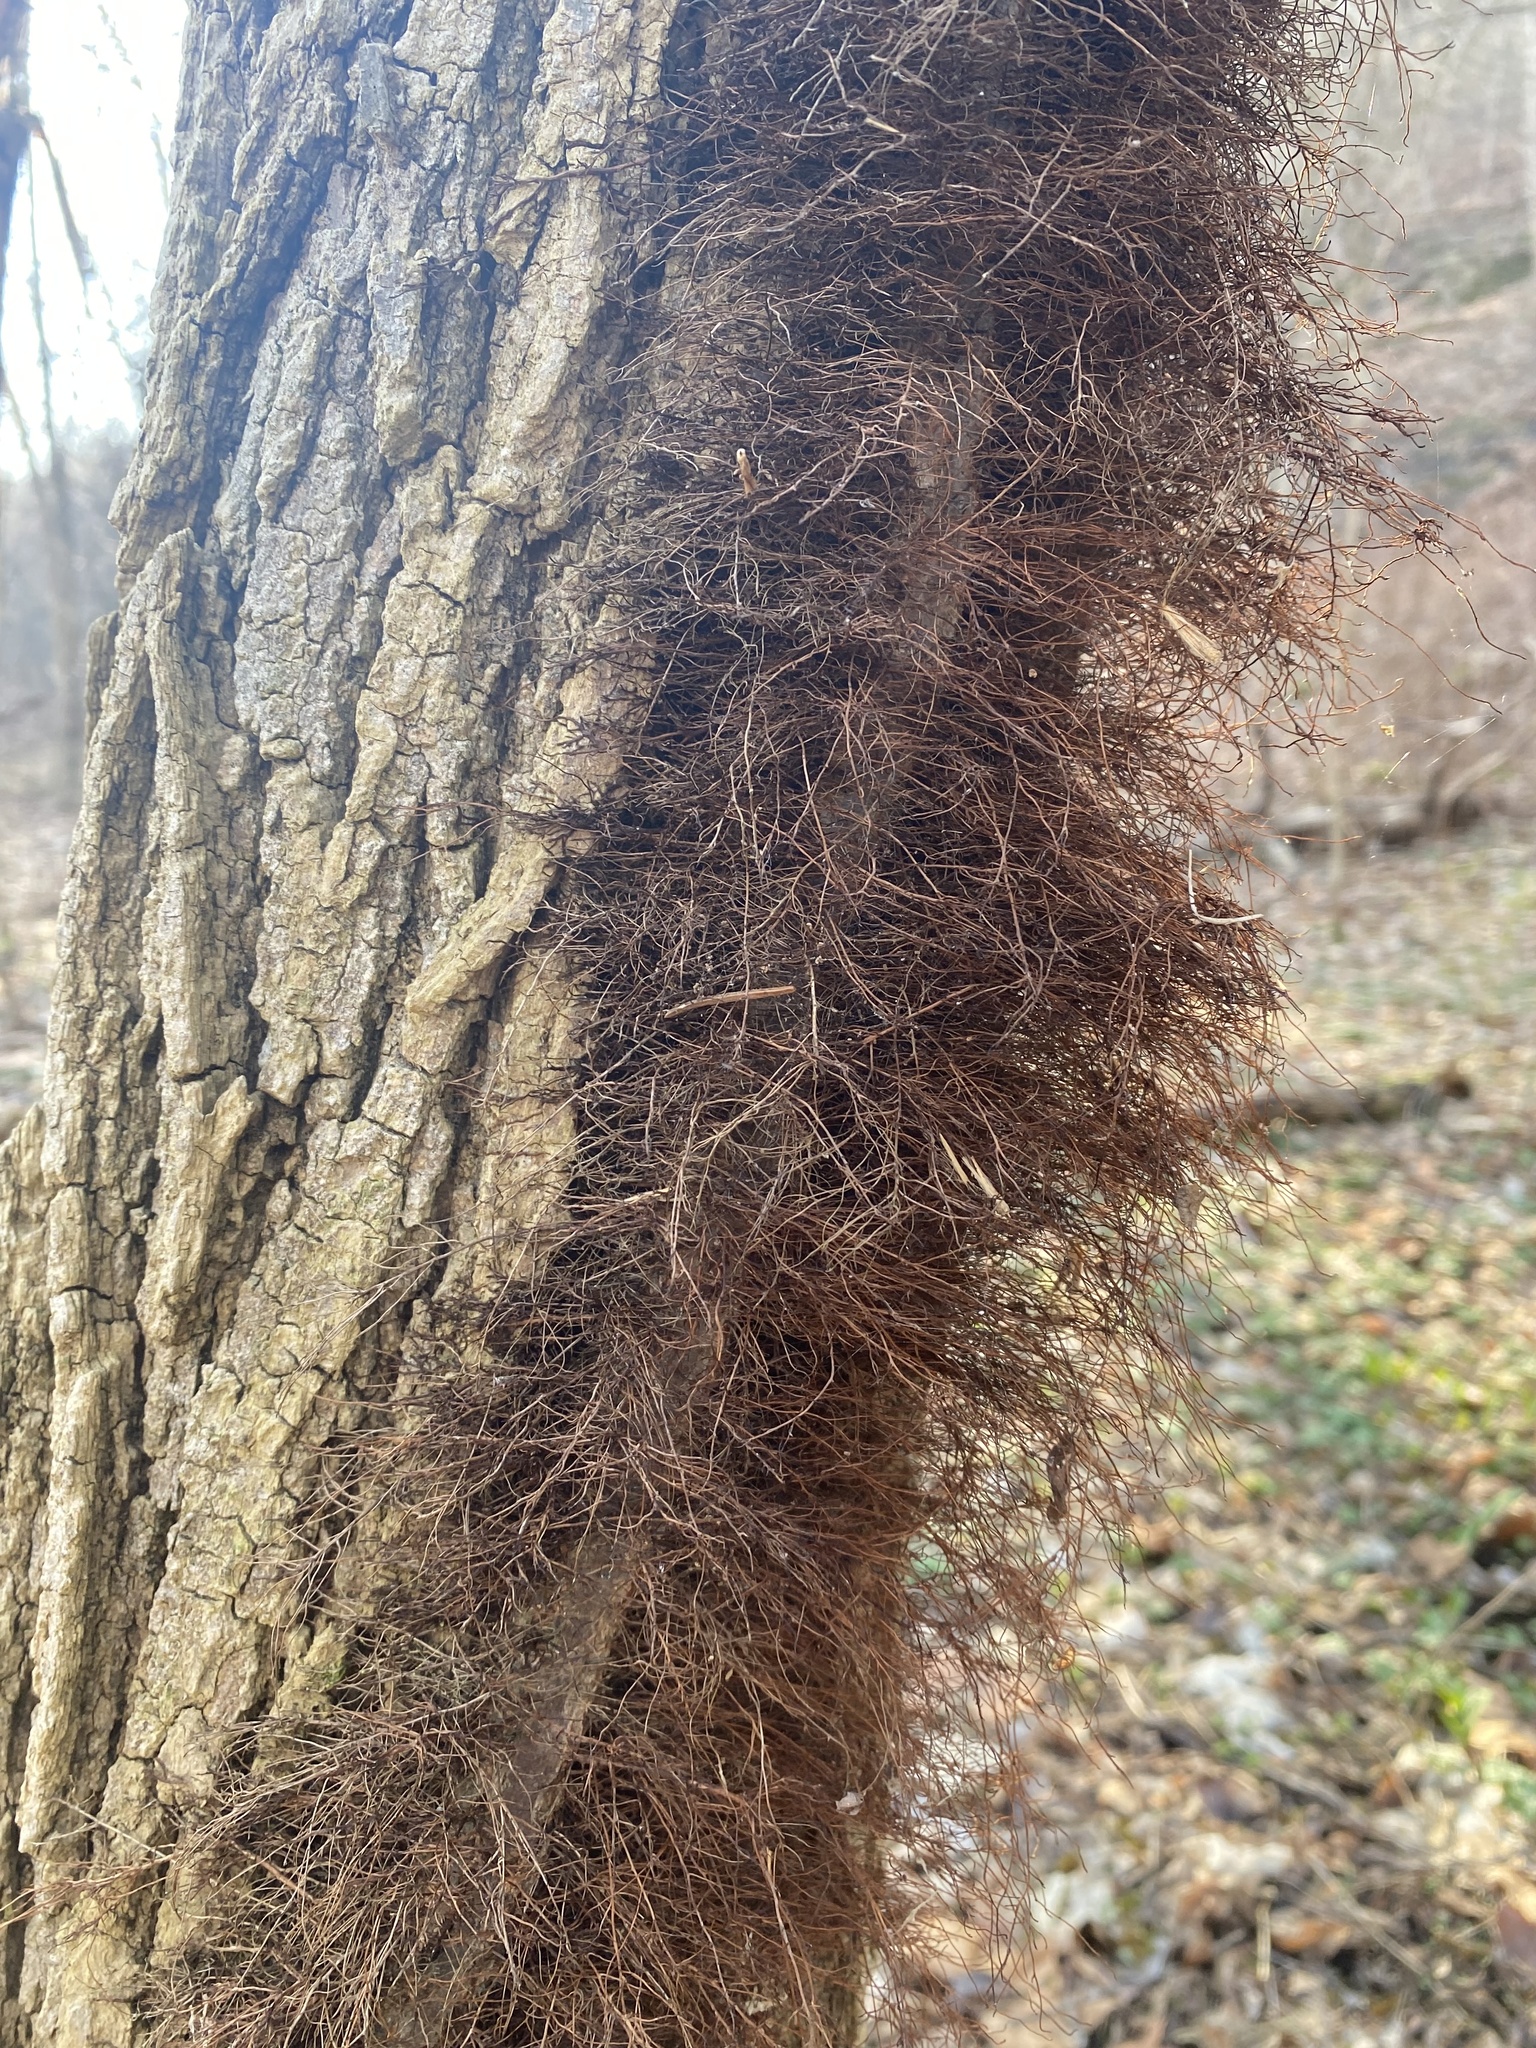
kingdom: Plantae
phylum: Tracheophyta
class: Magnoliopsida
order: Sapindales
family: Anacardiaceae
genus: Toxicodendron
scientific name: Toxicodendron radicans
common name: Poison ivy
